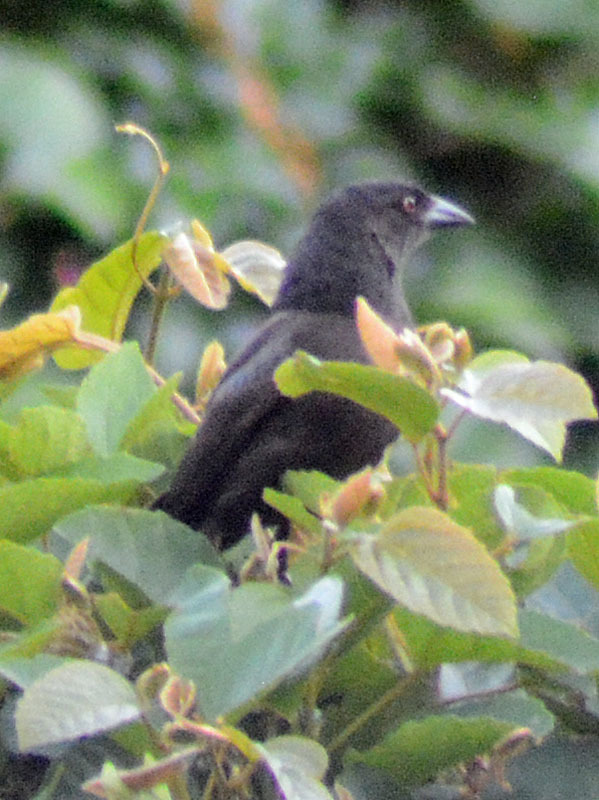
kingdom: Animalia
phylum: Chordata
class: Aves
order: Passeriformes
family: Icteridae
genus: Molothrus
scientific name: Molothrus aeneus
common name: Bronzed cowbird
